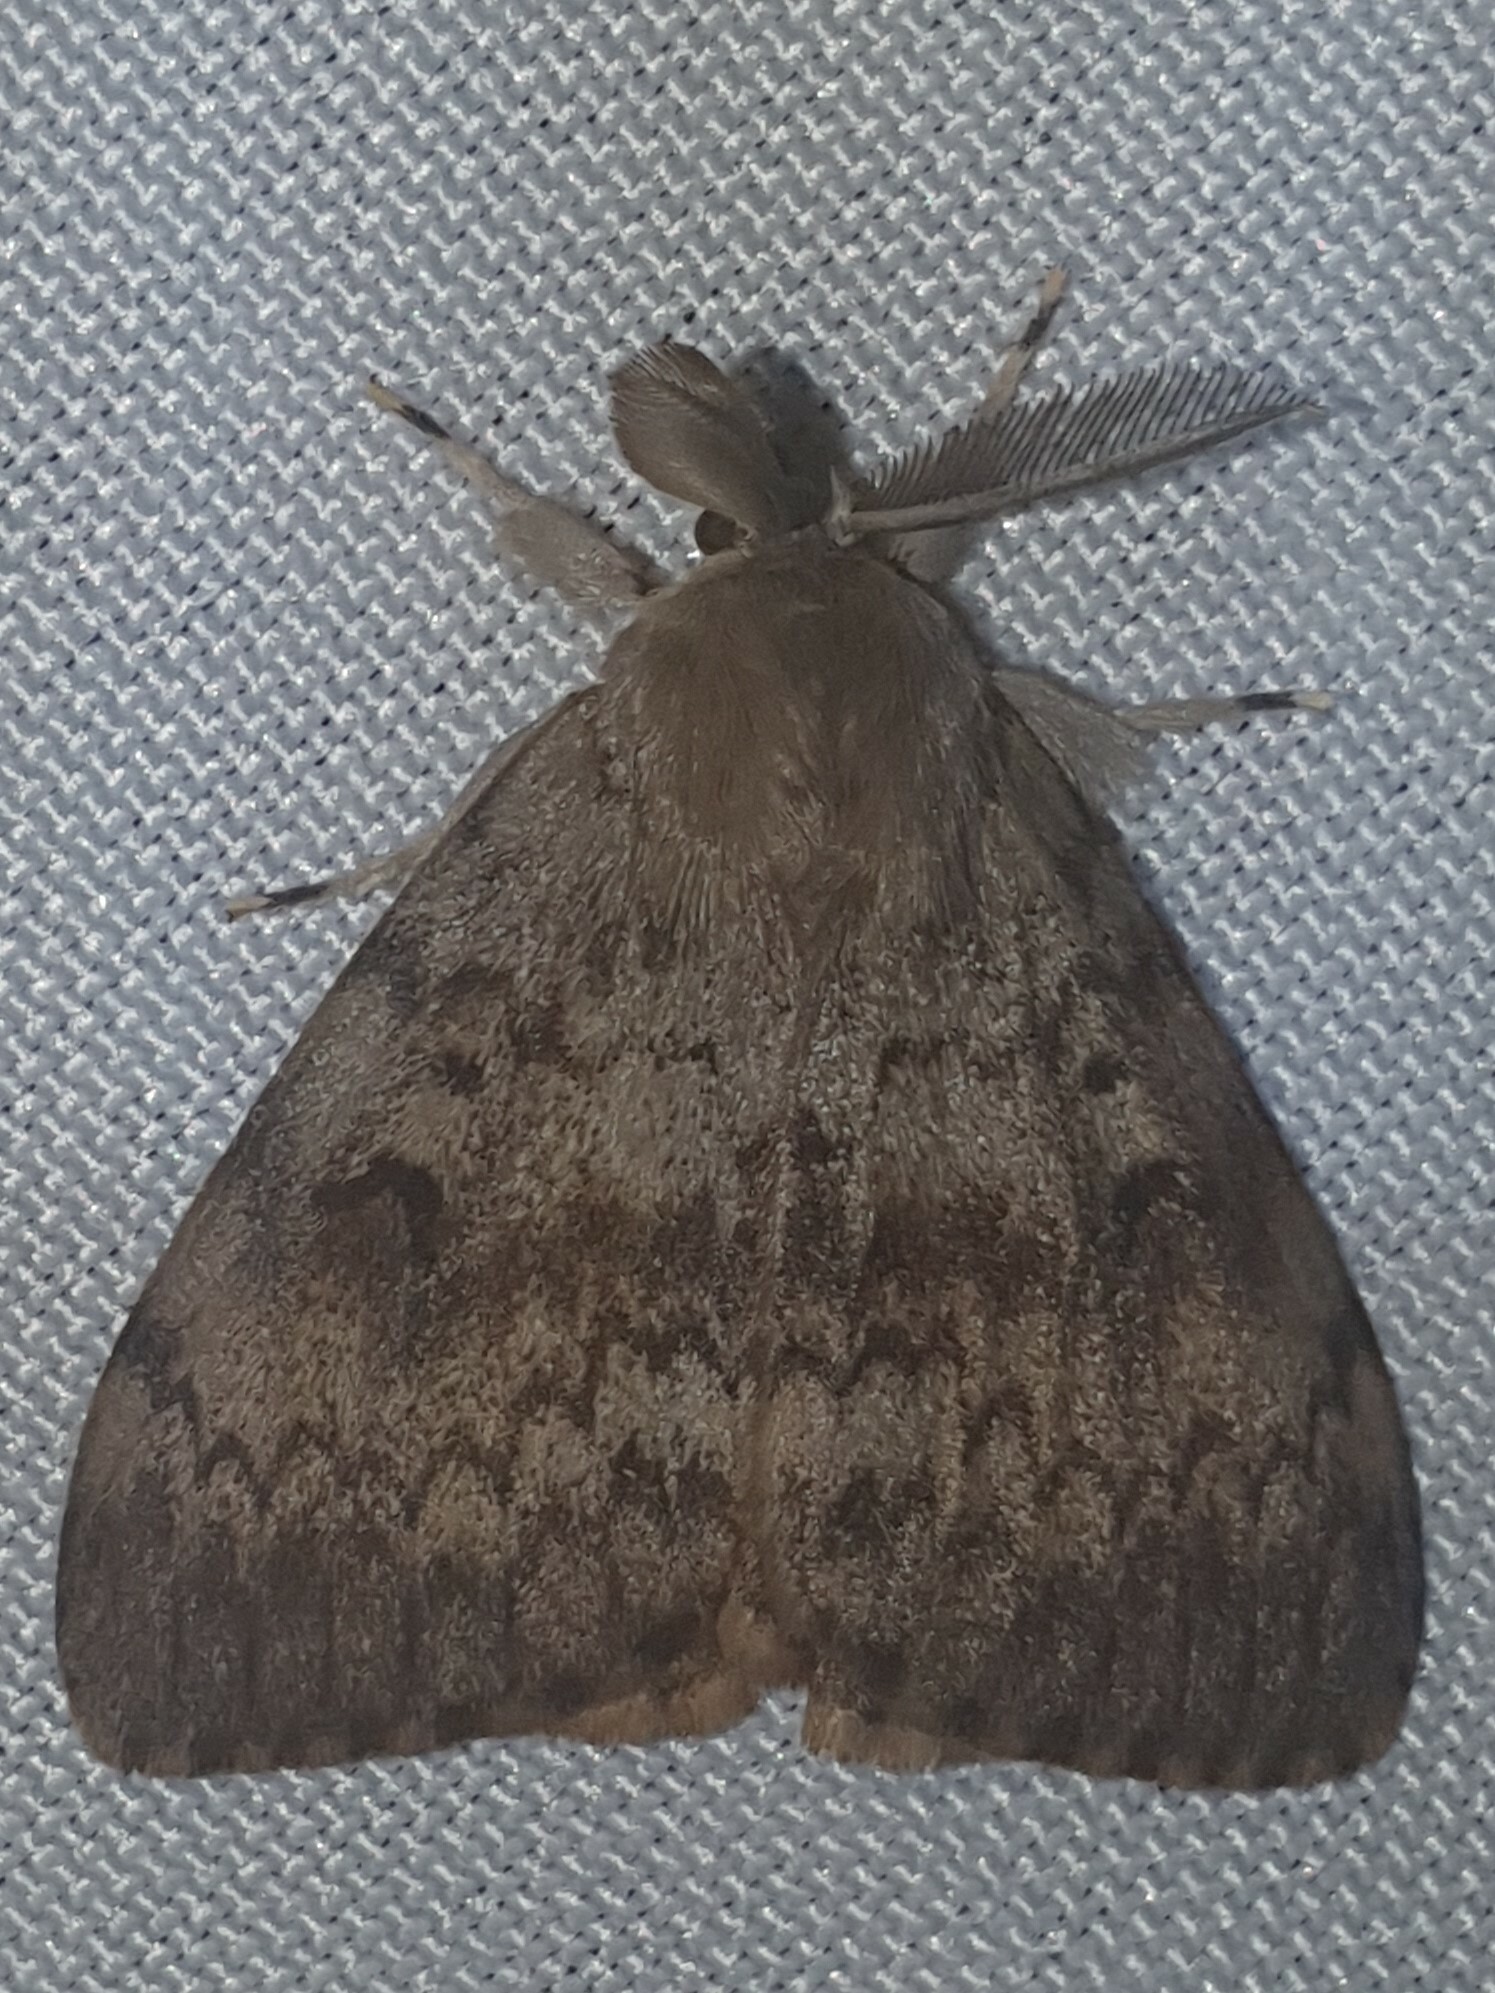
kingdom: Animalia
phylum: Arthropoda
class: Insecta
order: Lepidoptera
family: Erebidae
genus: Lymantria
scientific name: Lymantria dispar
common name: Gypsy moth
